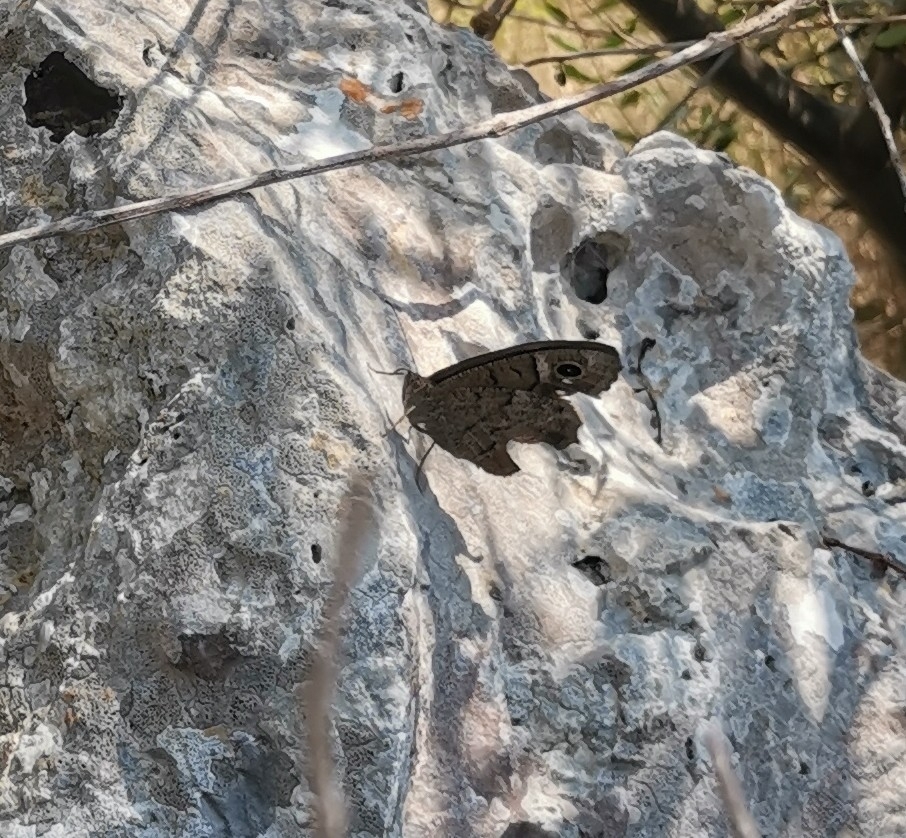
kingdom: Animalia
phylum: Arthropoda
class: Insecta
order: Lepidoptera
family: Nymphalidae
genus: Hipparchia
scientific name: Hipparchia statilinus
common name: Tree grayling
